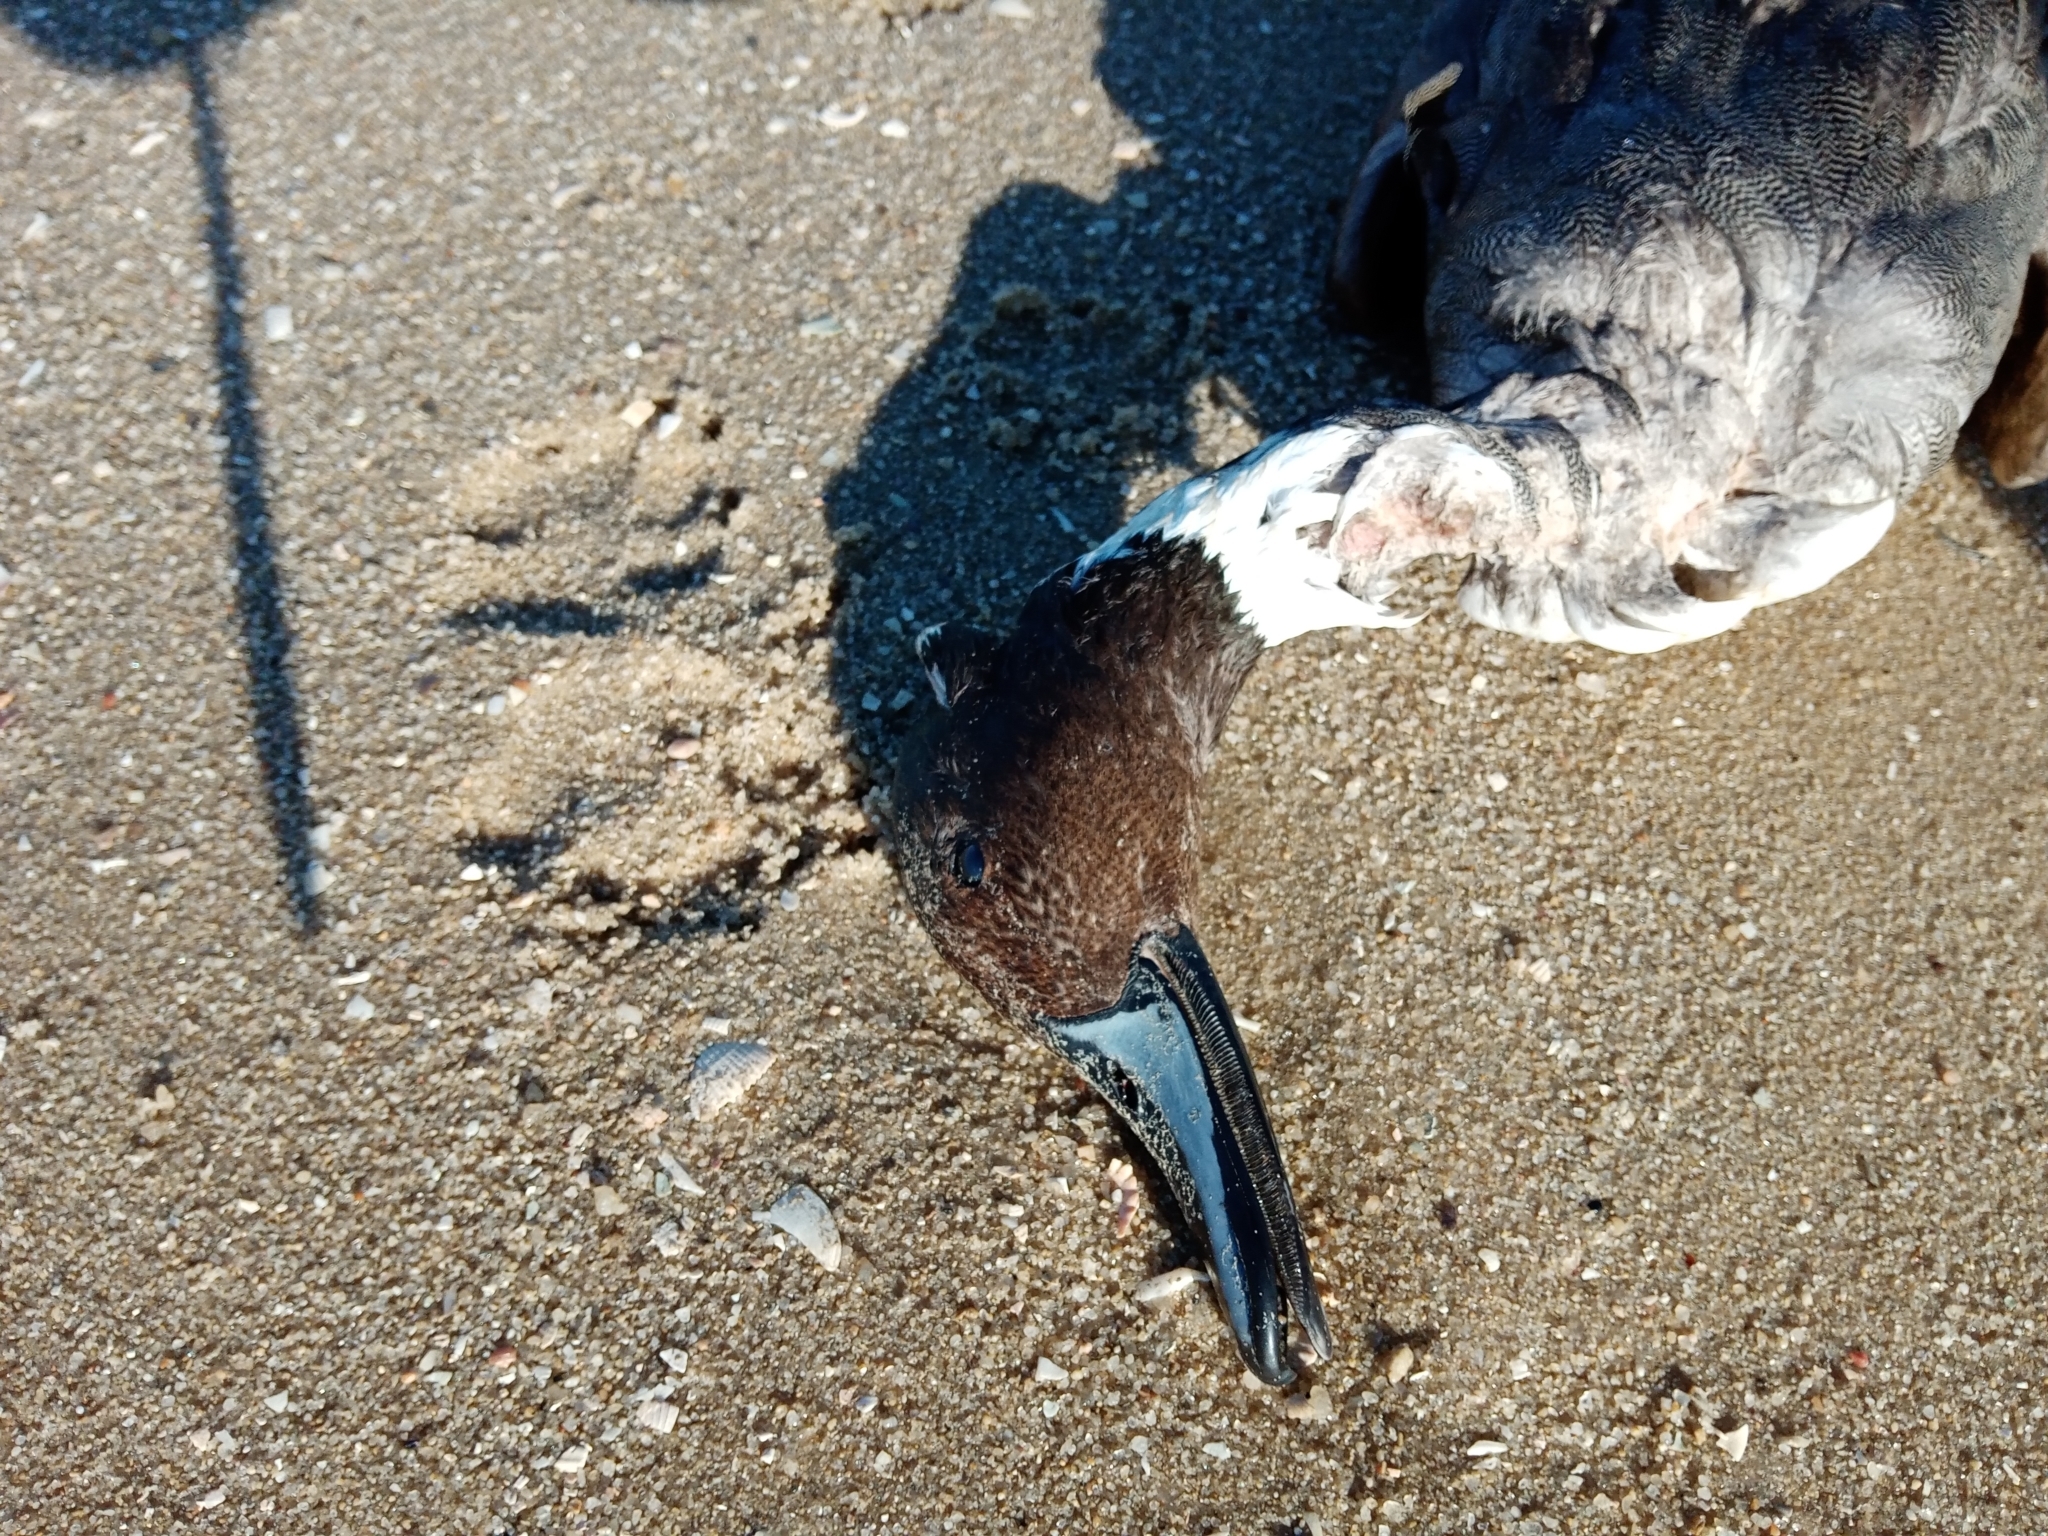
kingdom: Animalia
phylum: Chordata
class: Aves
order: Anseriformes
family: Anatidae
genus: Anas
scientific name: Anas acuta
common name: Northern pintail
